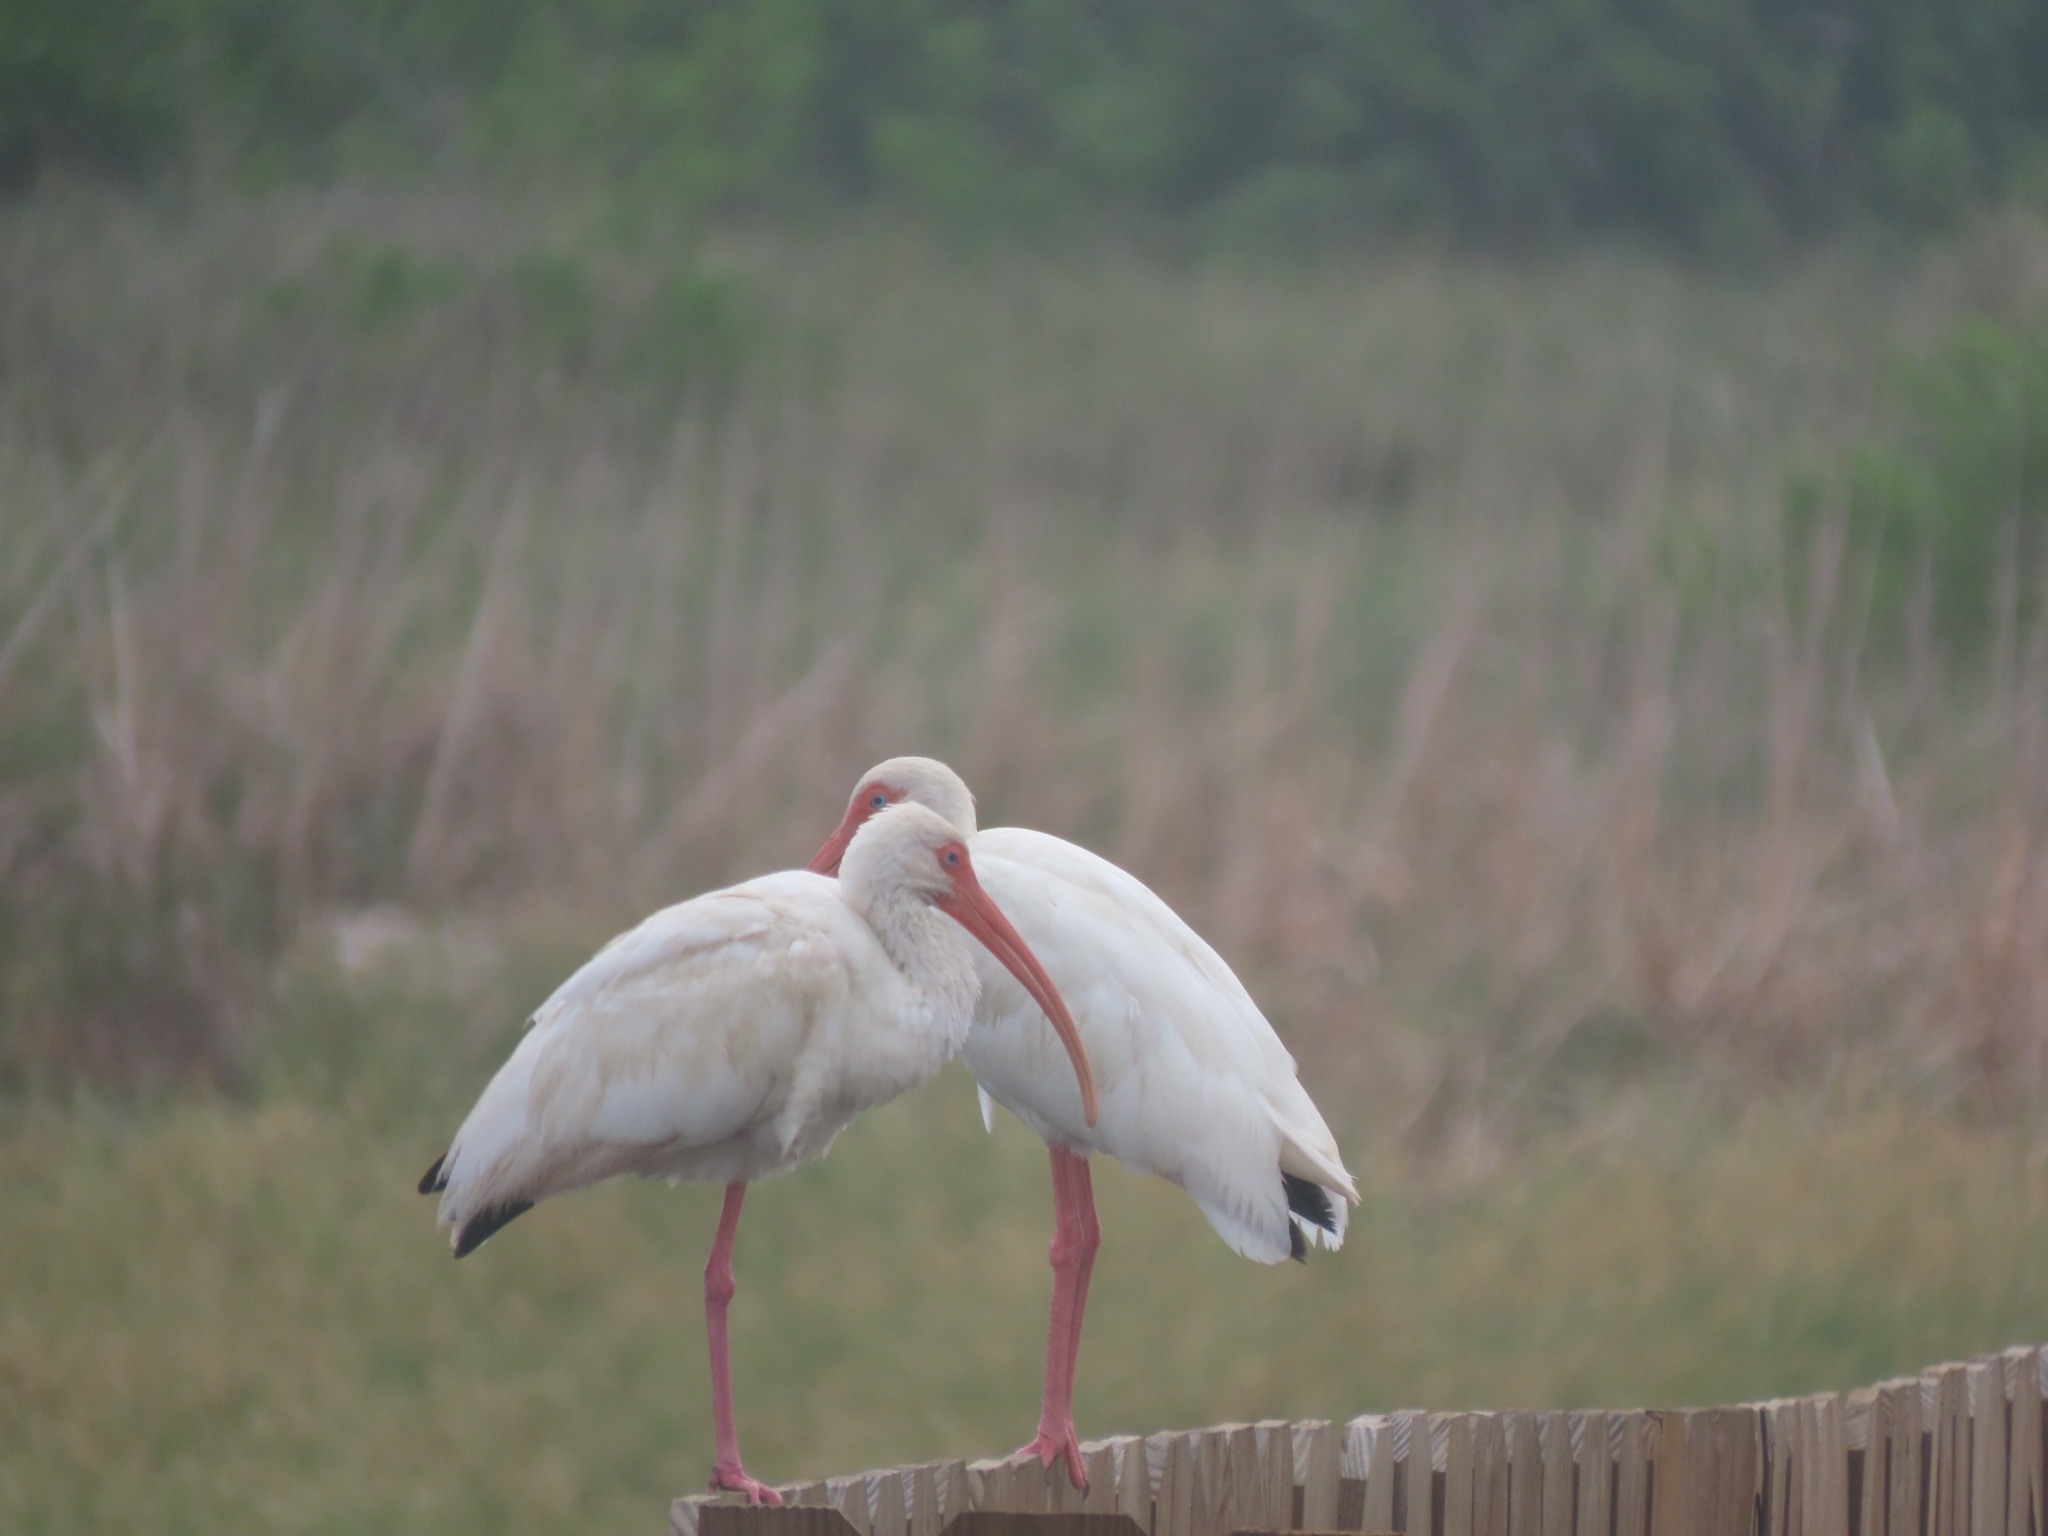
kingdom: Animalia
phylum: Chordata
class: Aves
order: Pelecaniformes
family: Threskiornithidae
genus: Eudocimus
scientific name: Eudocimus albus
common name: White ibis
